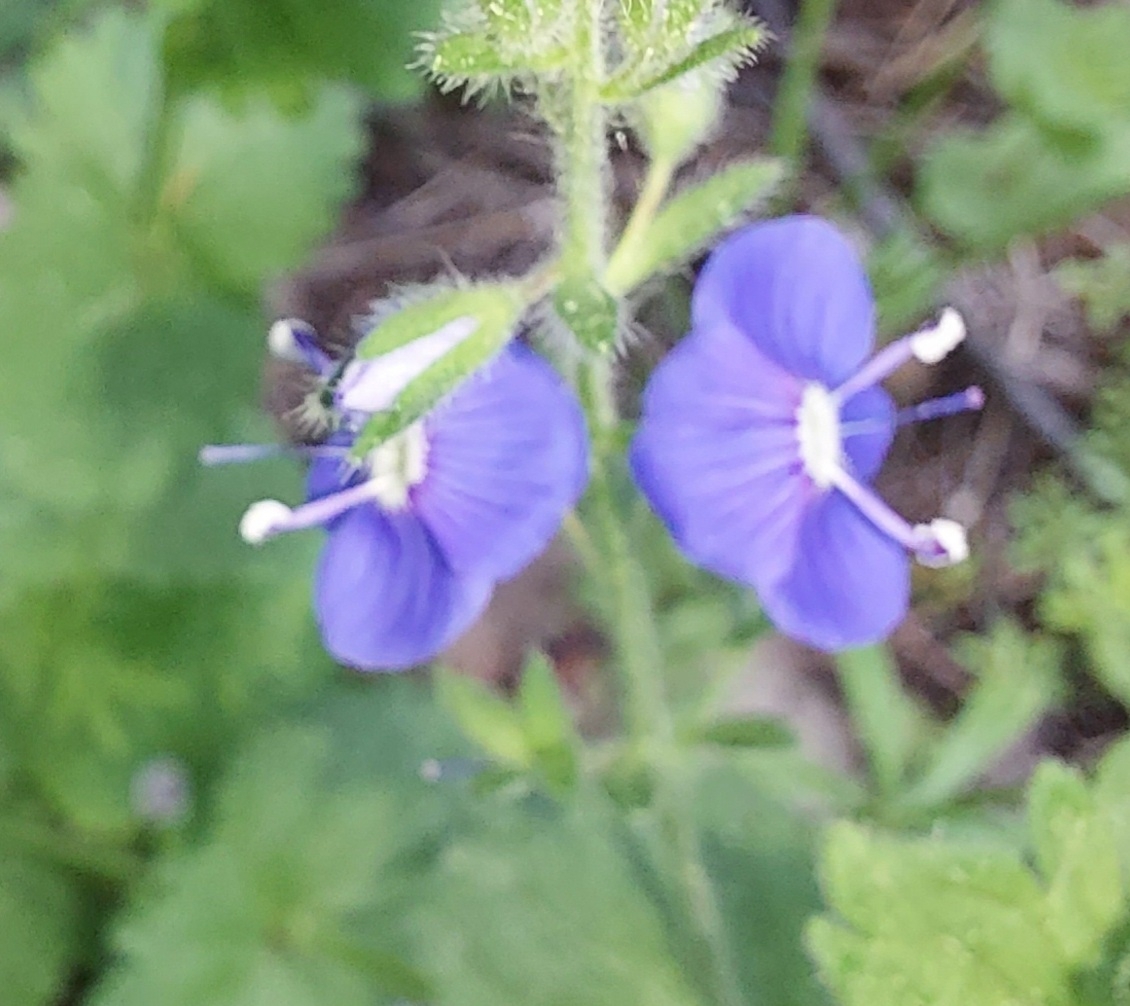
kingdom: Plantae
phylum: Tracheophyta
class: Magnoliopsida
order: Lamiales
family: Plantaginaceae
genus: Veronica
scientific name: Veronica chamaedrys
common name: Germander speedwell
